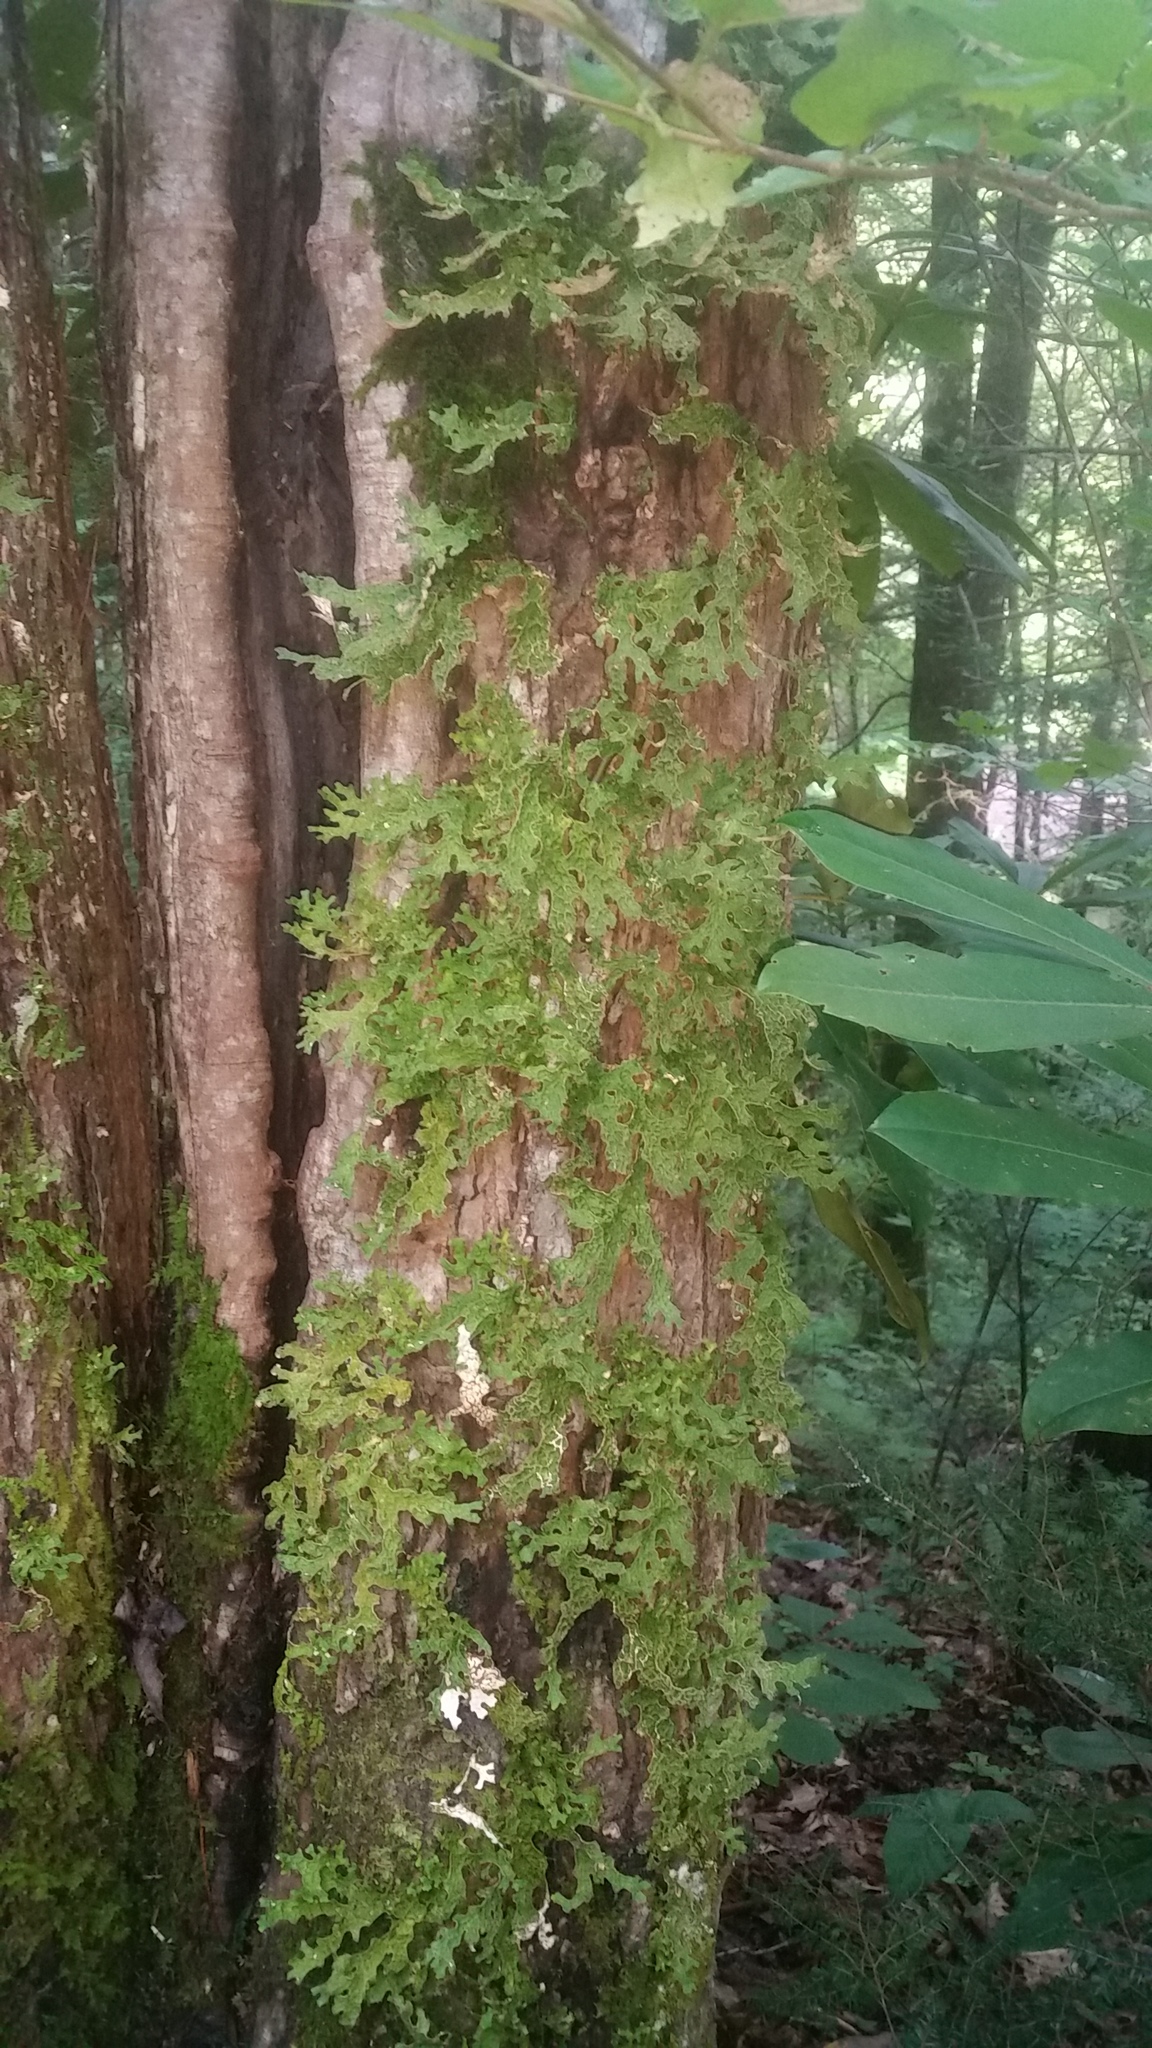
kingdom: Fungi
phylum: Ascomycota
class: Lecanoromycetes
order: Peltigerales
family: Lobariaceae
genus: Lobaria
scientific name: Lobaria pulmonaria
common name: Lungwort
